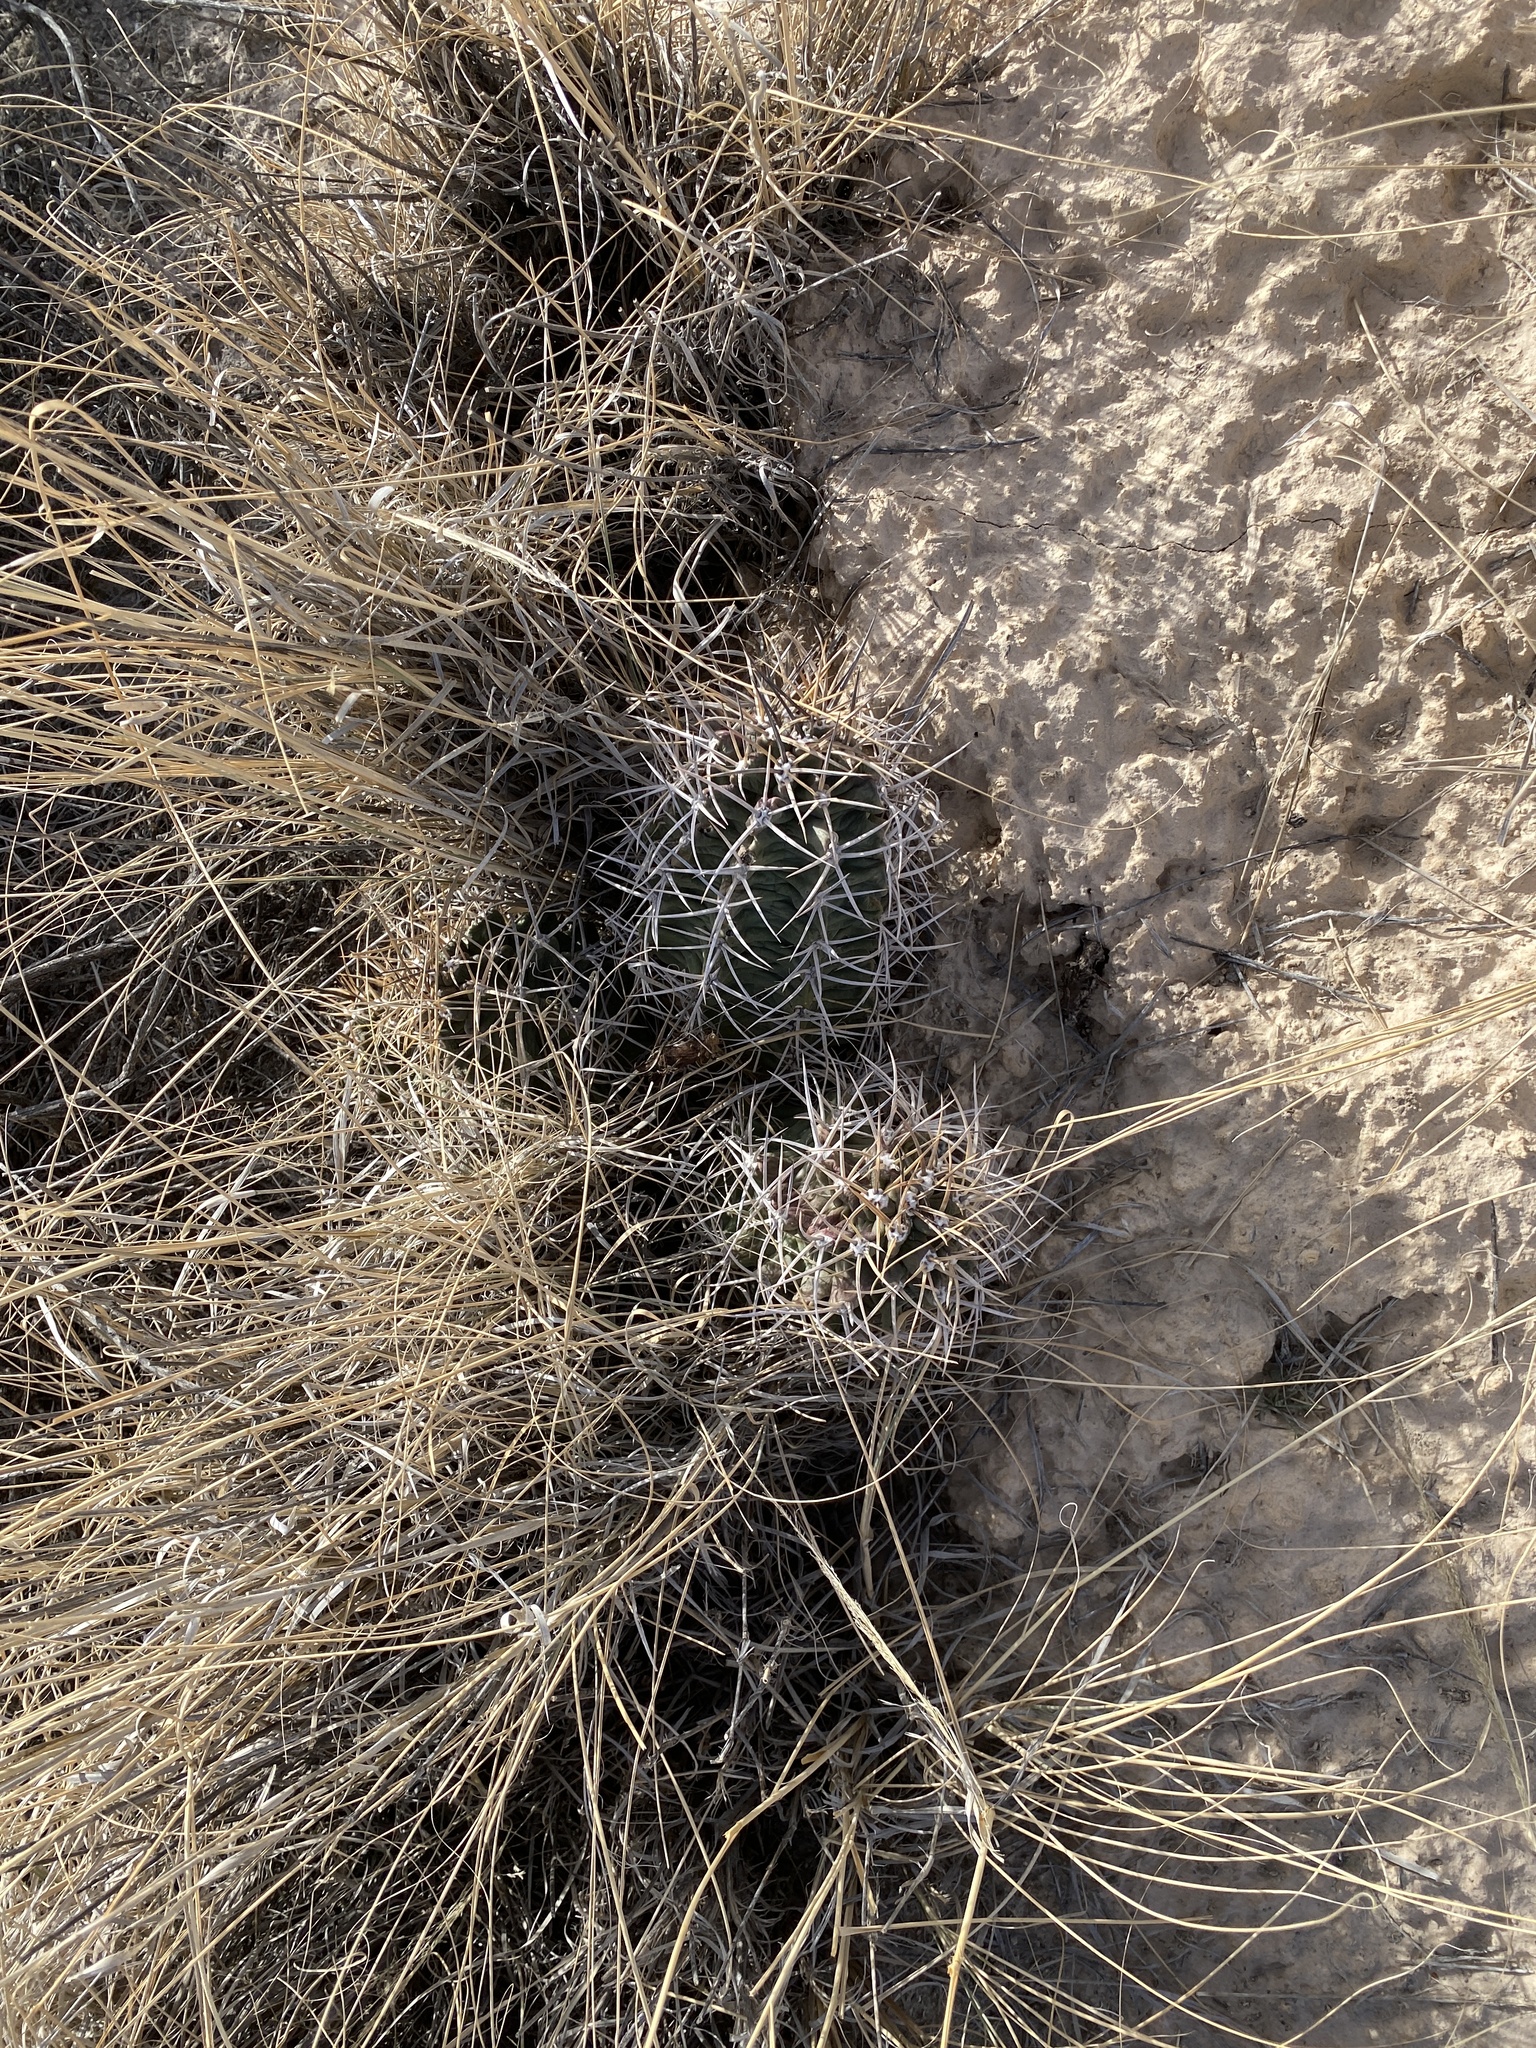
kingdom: Plantae
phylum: Tracheophyta
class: Magnoliopsida
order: Caryophyllales
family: Cactaceae
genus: Echinocereus
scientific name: Echinocereus triglochidiatus
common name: Claretcup hedgehog
